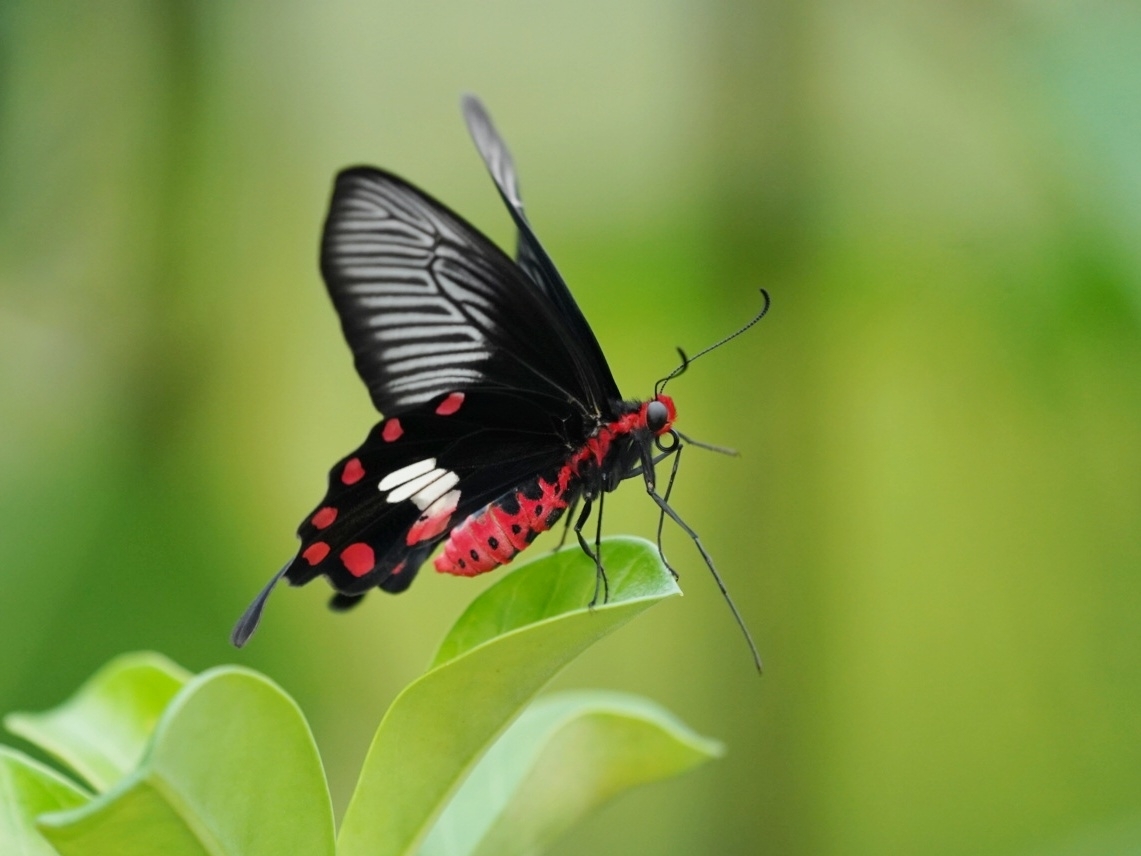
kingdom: Animalia
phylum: Arthropoda
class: Insecta
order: Lepidoptera
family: Papilionidae
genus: Pachliopta
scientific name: Pachliopta aristolochiae
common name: Common rose
